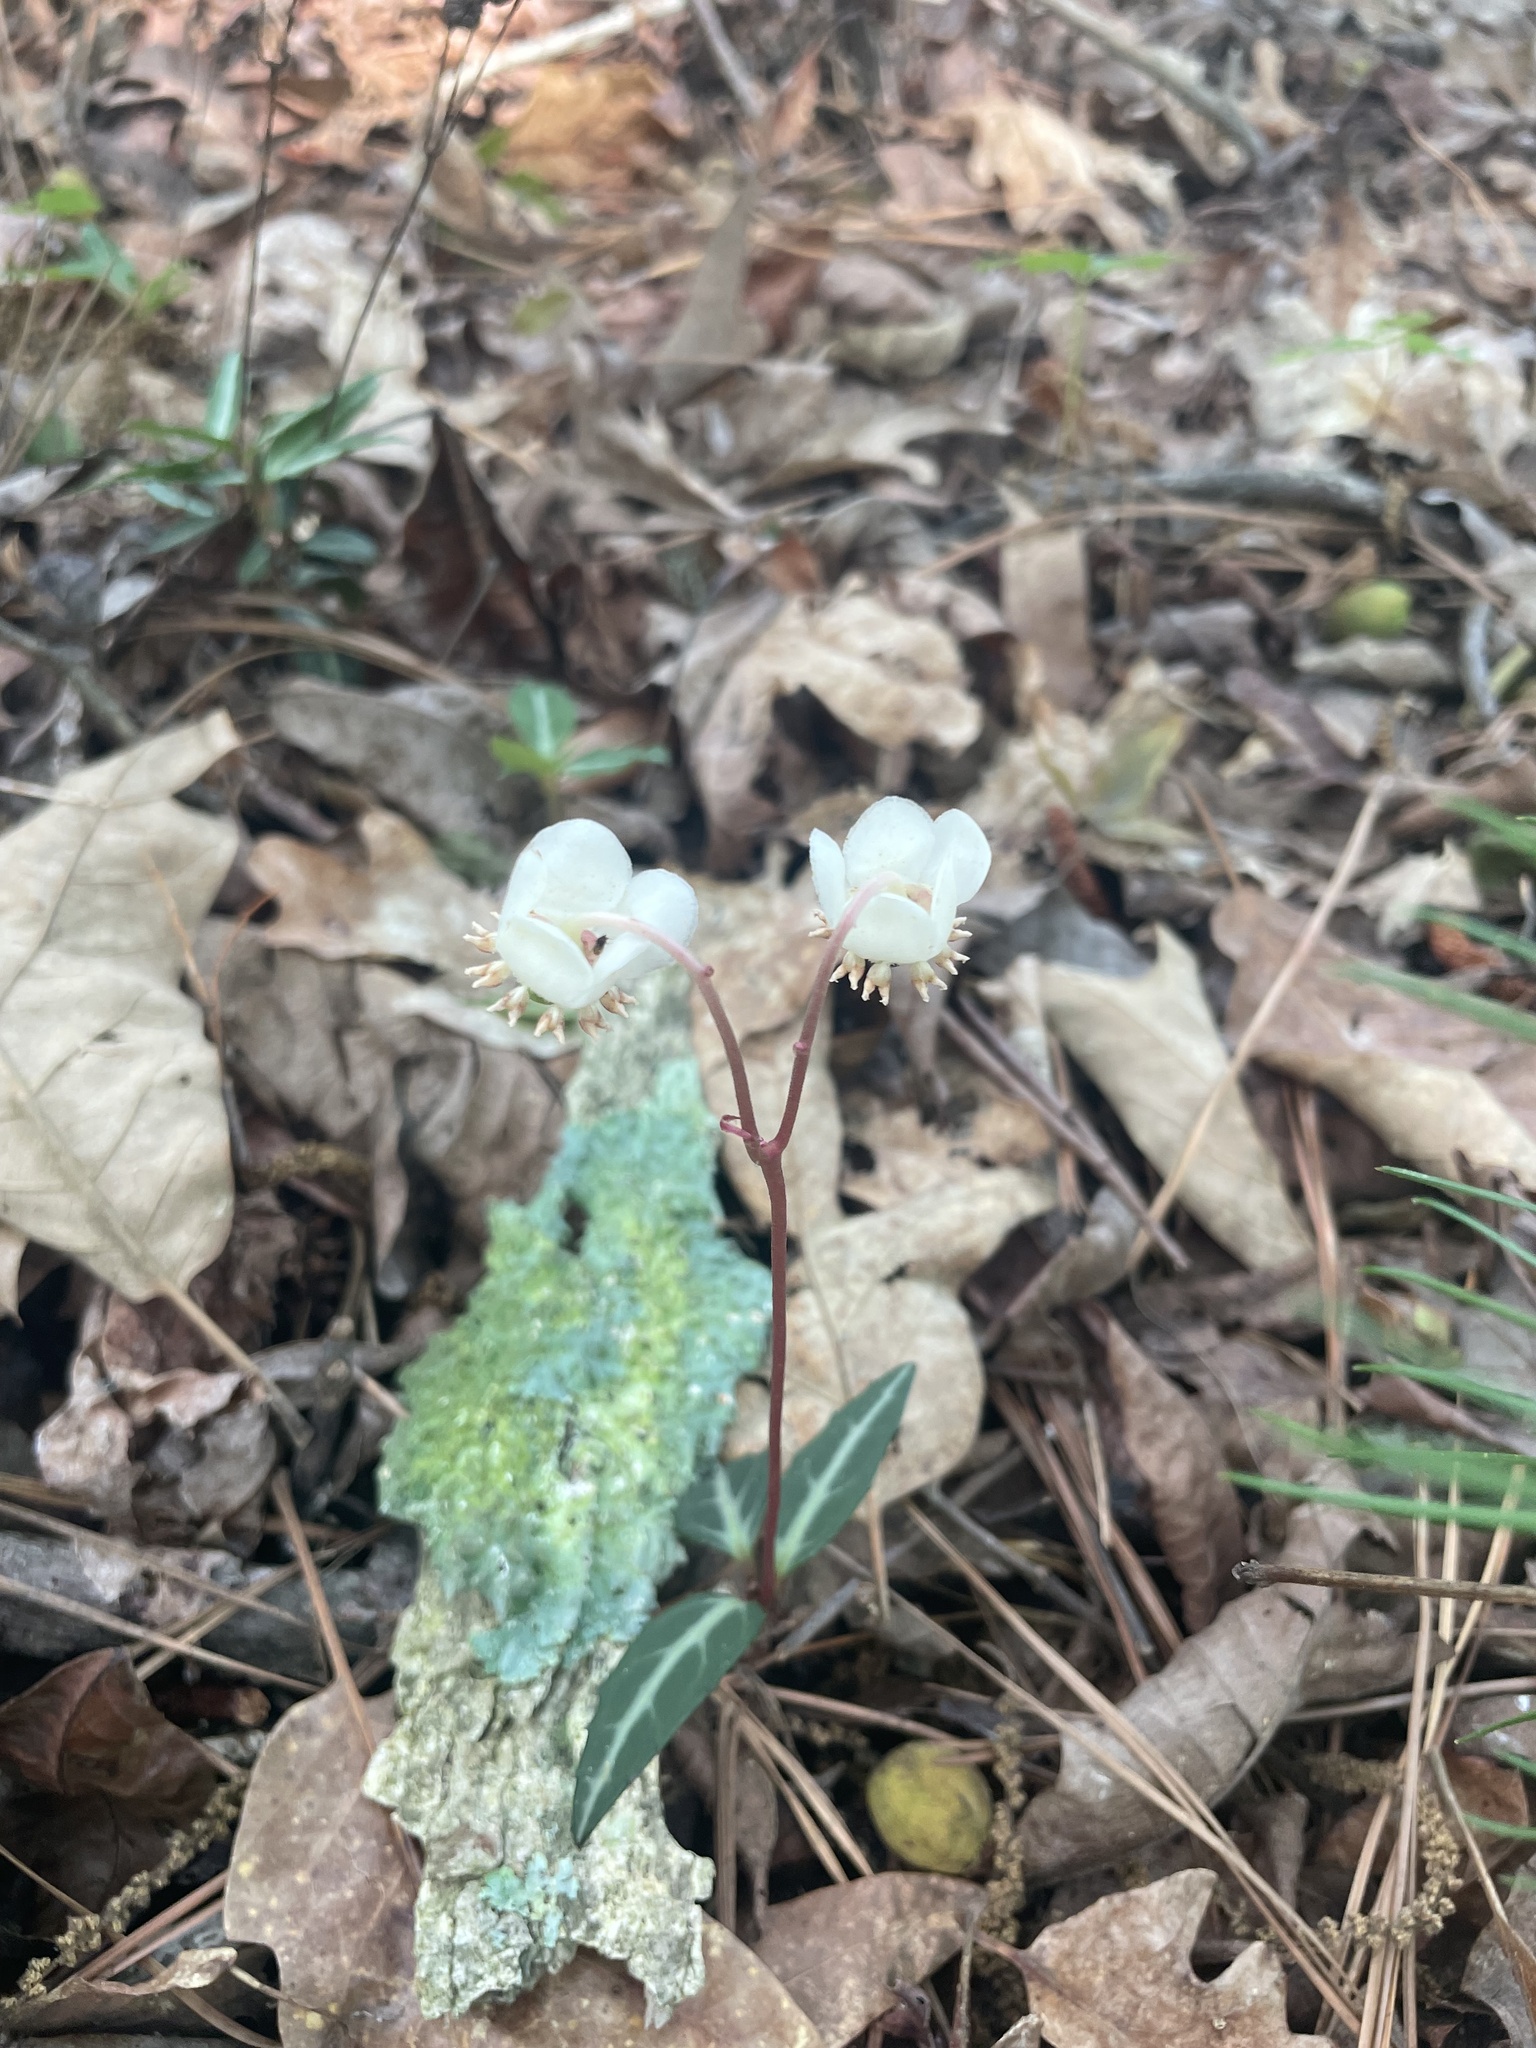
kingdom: Plantae
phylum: Tracheophyta
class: Magnoliopsida
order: Ericales
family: Ericaceae
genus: Chimaphila
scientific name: Chimaphila maculata
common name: Spotted pipsissewa
